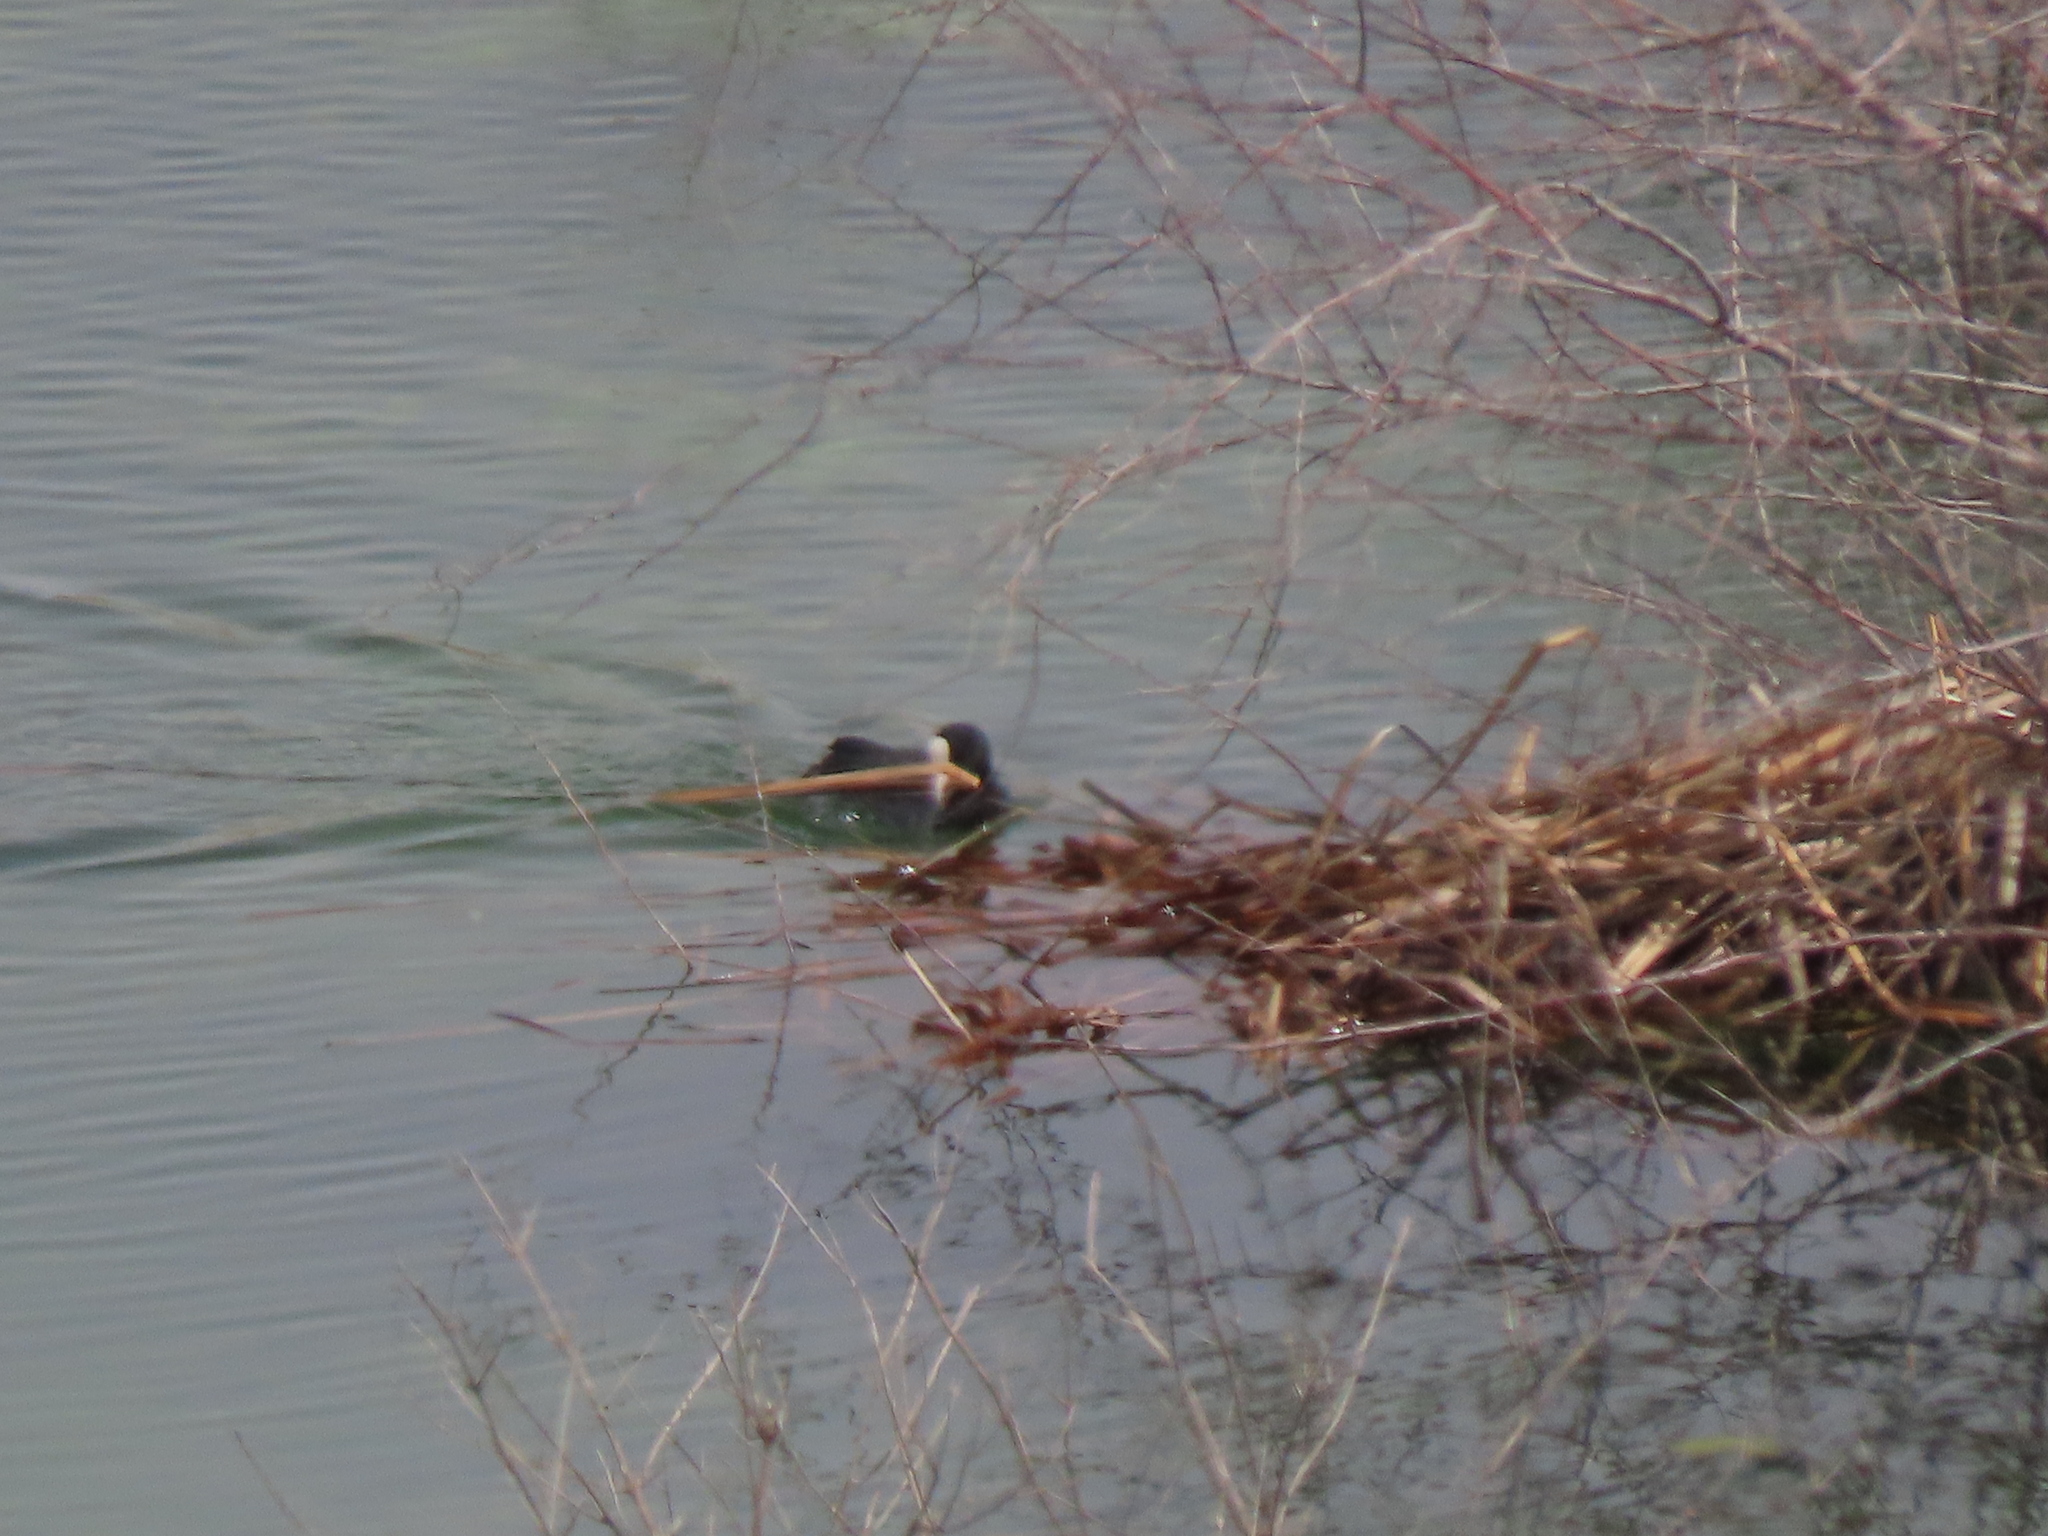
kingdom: Animalia
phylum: Chordata
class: Aves
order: Gruiformes
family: Rallidae
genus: Fulica
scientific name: Fulica atra
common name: Eurasian coot
